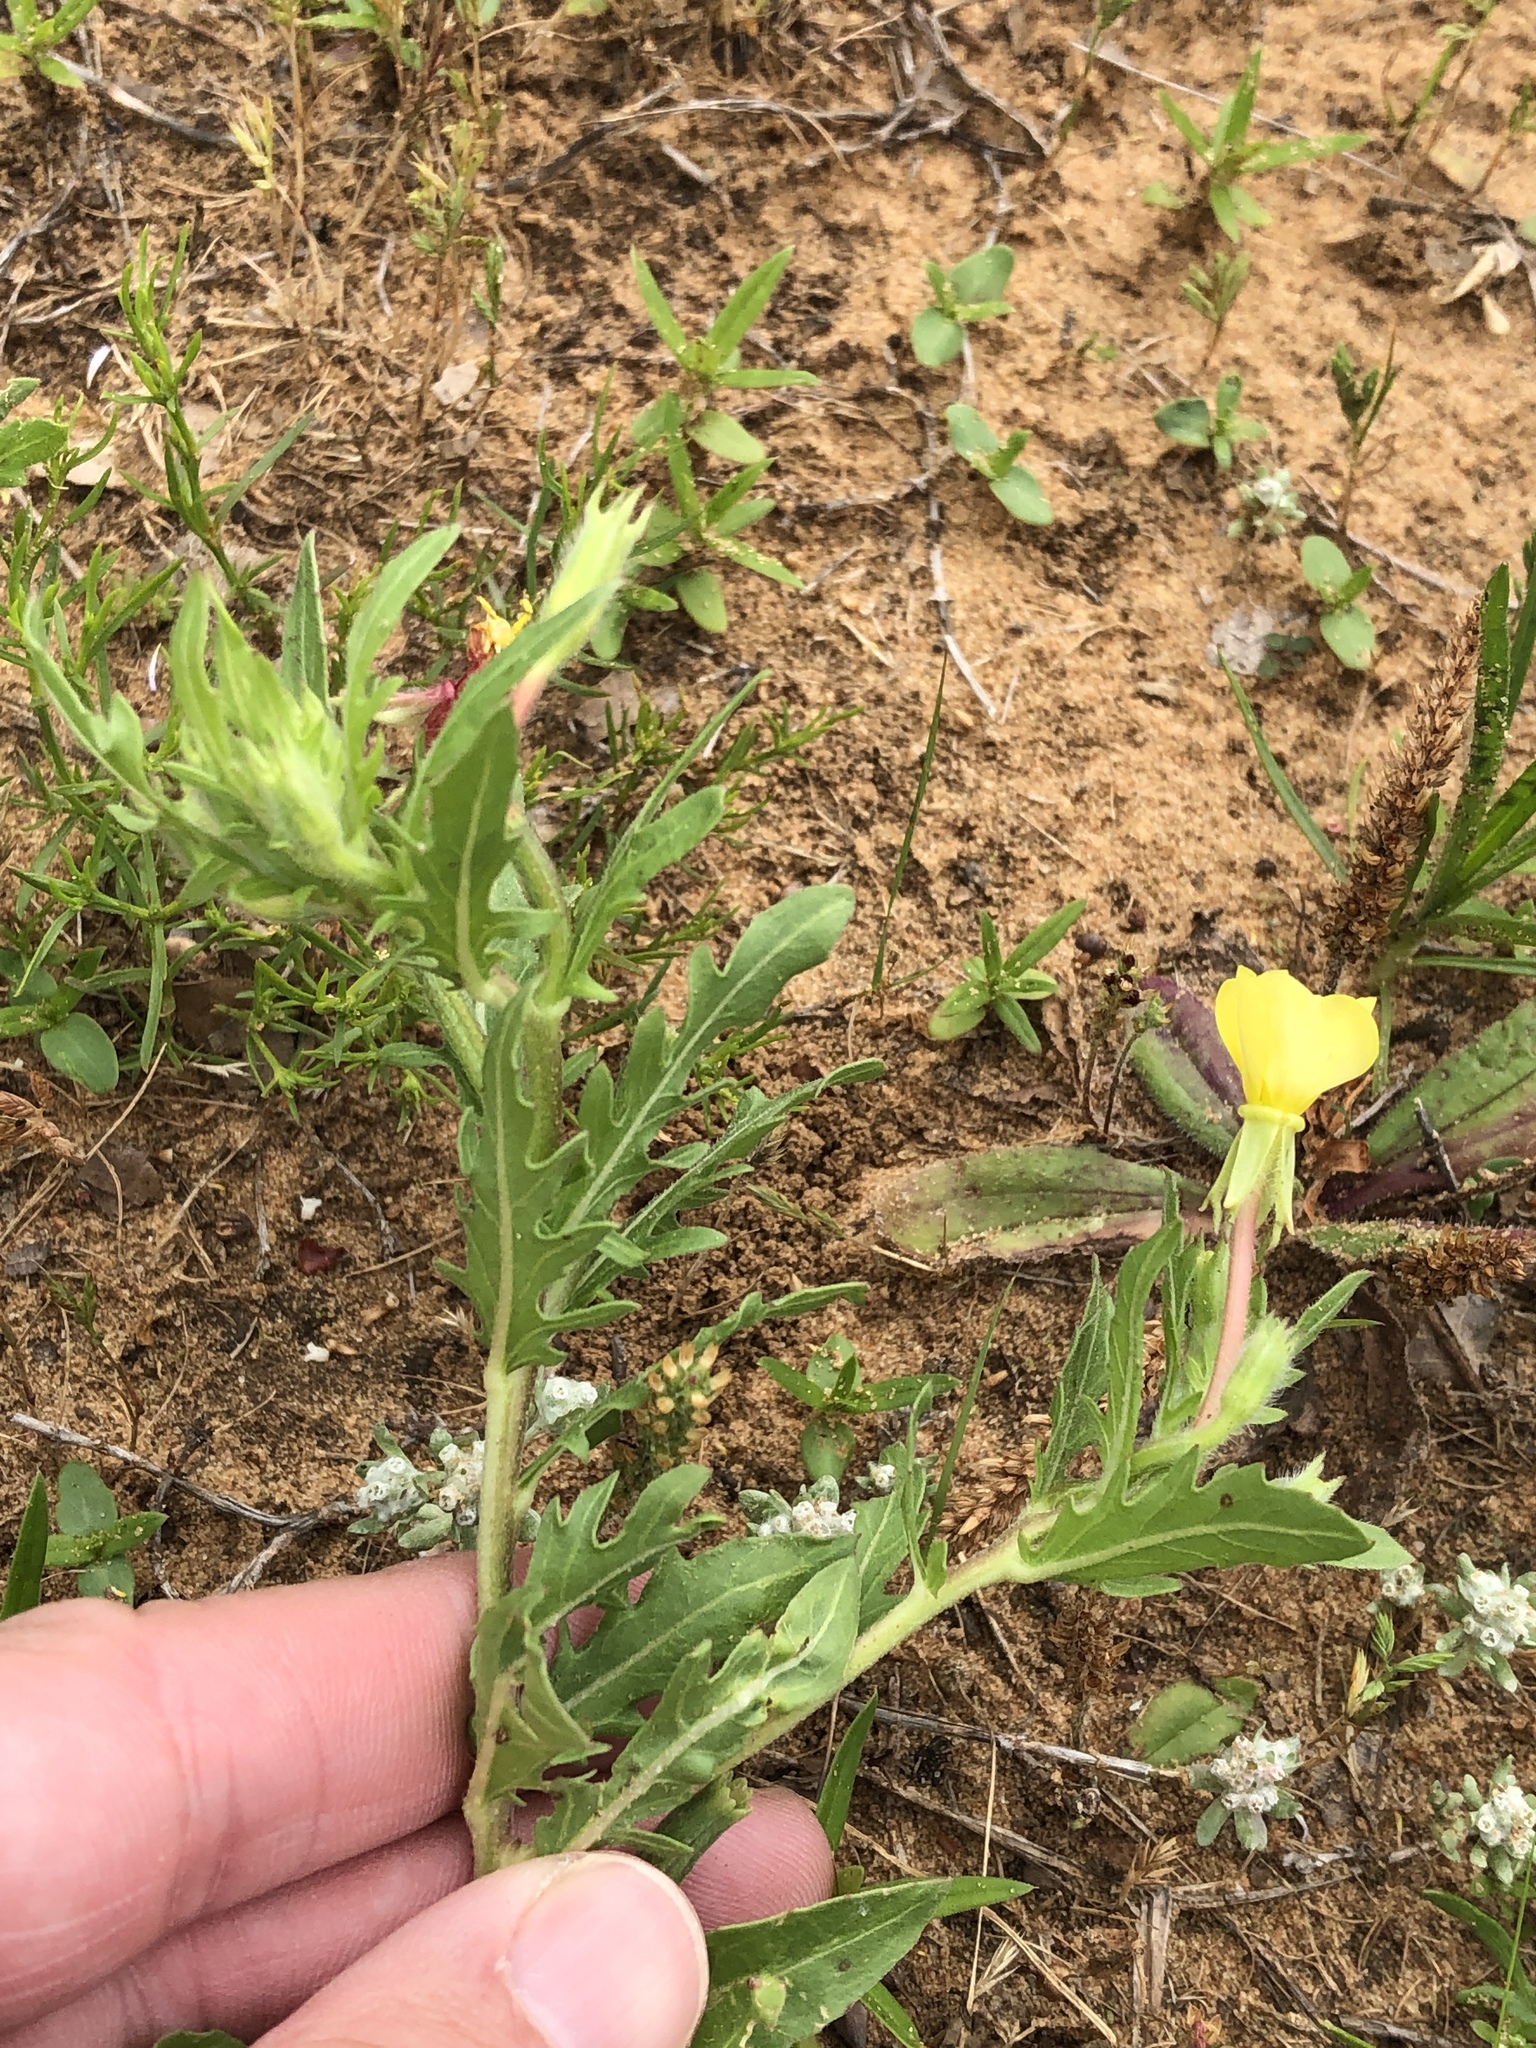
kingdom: Plantae
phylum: Tracheophyta
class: Magnoliopsida
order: Myrtales
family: Onagraceae
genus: Oenothera
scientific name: Oenothera laciniata
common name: Cut-leaved evening-primrose
